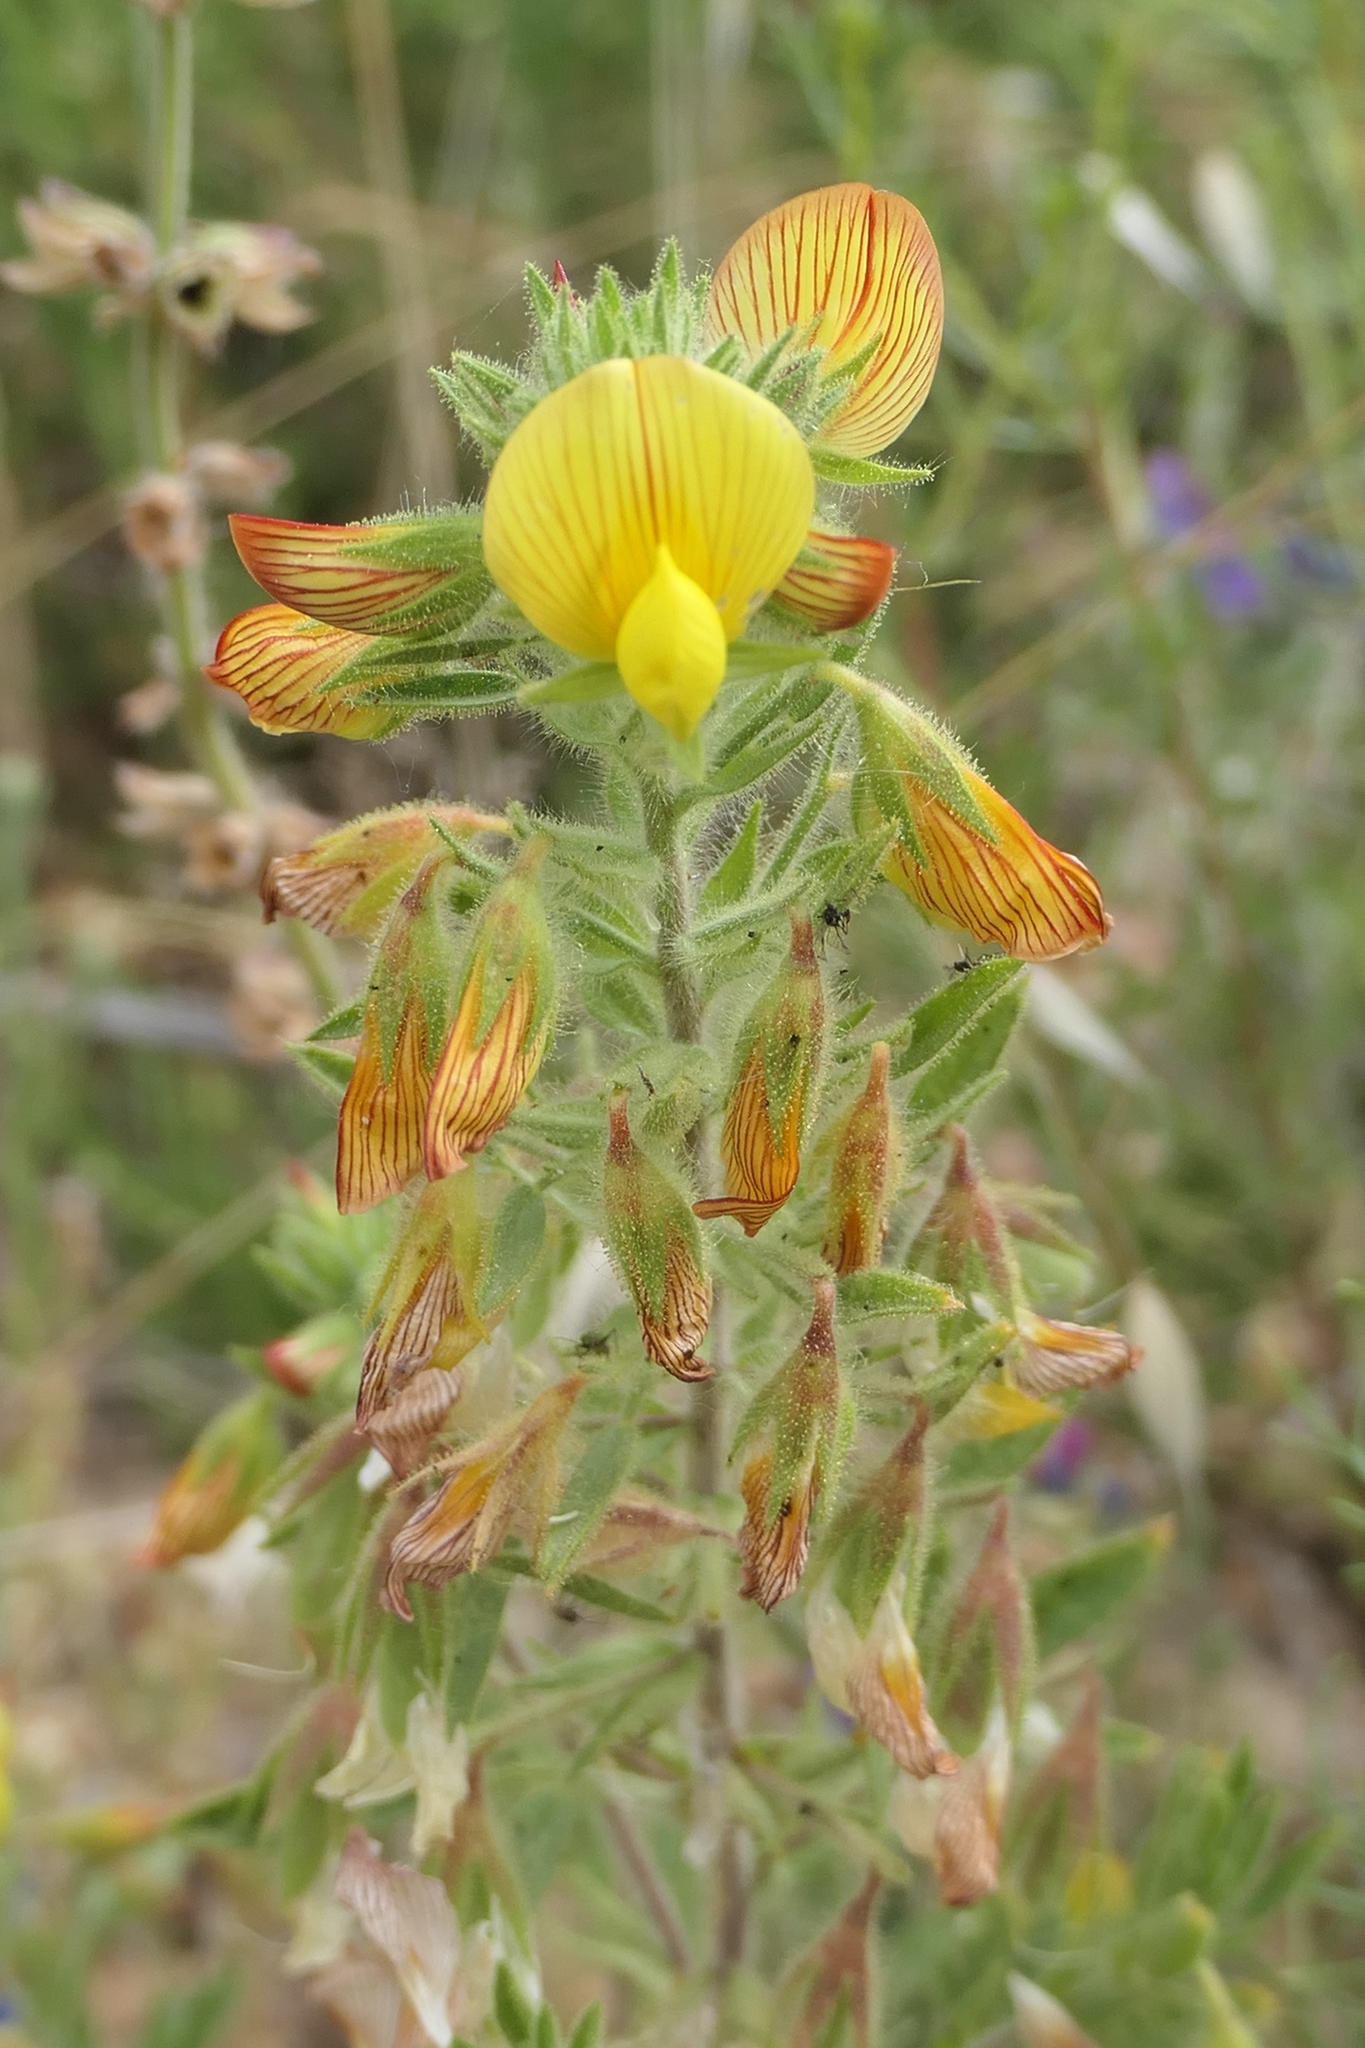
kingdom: Plantae
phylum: Tracheophyta
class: Magnoliopsida
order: Fabales
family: Fabaceae
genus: Ononis
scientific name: Ononis viscosa
